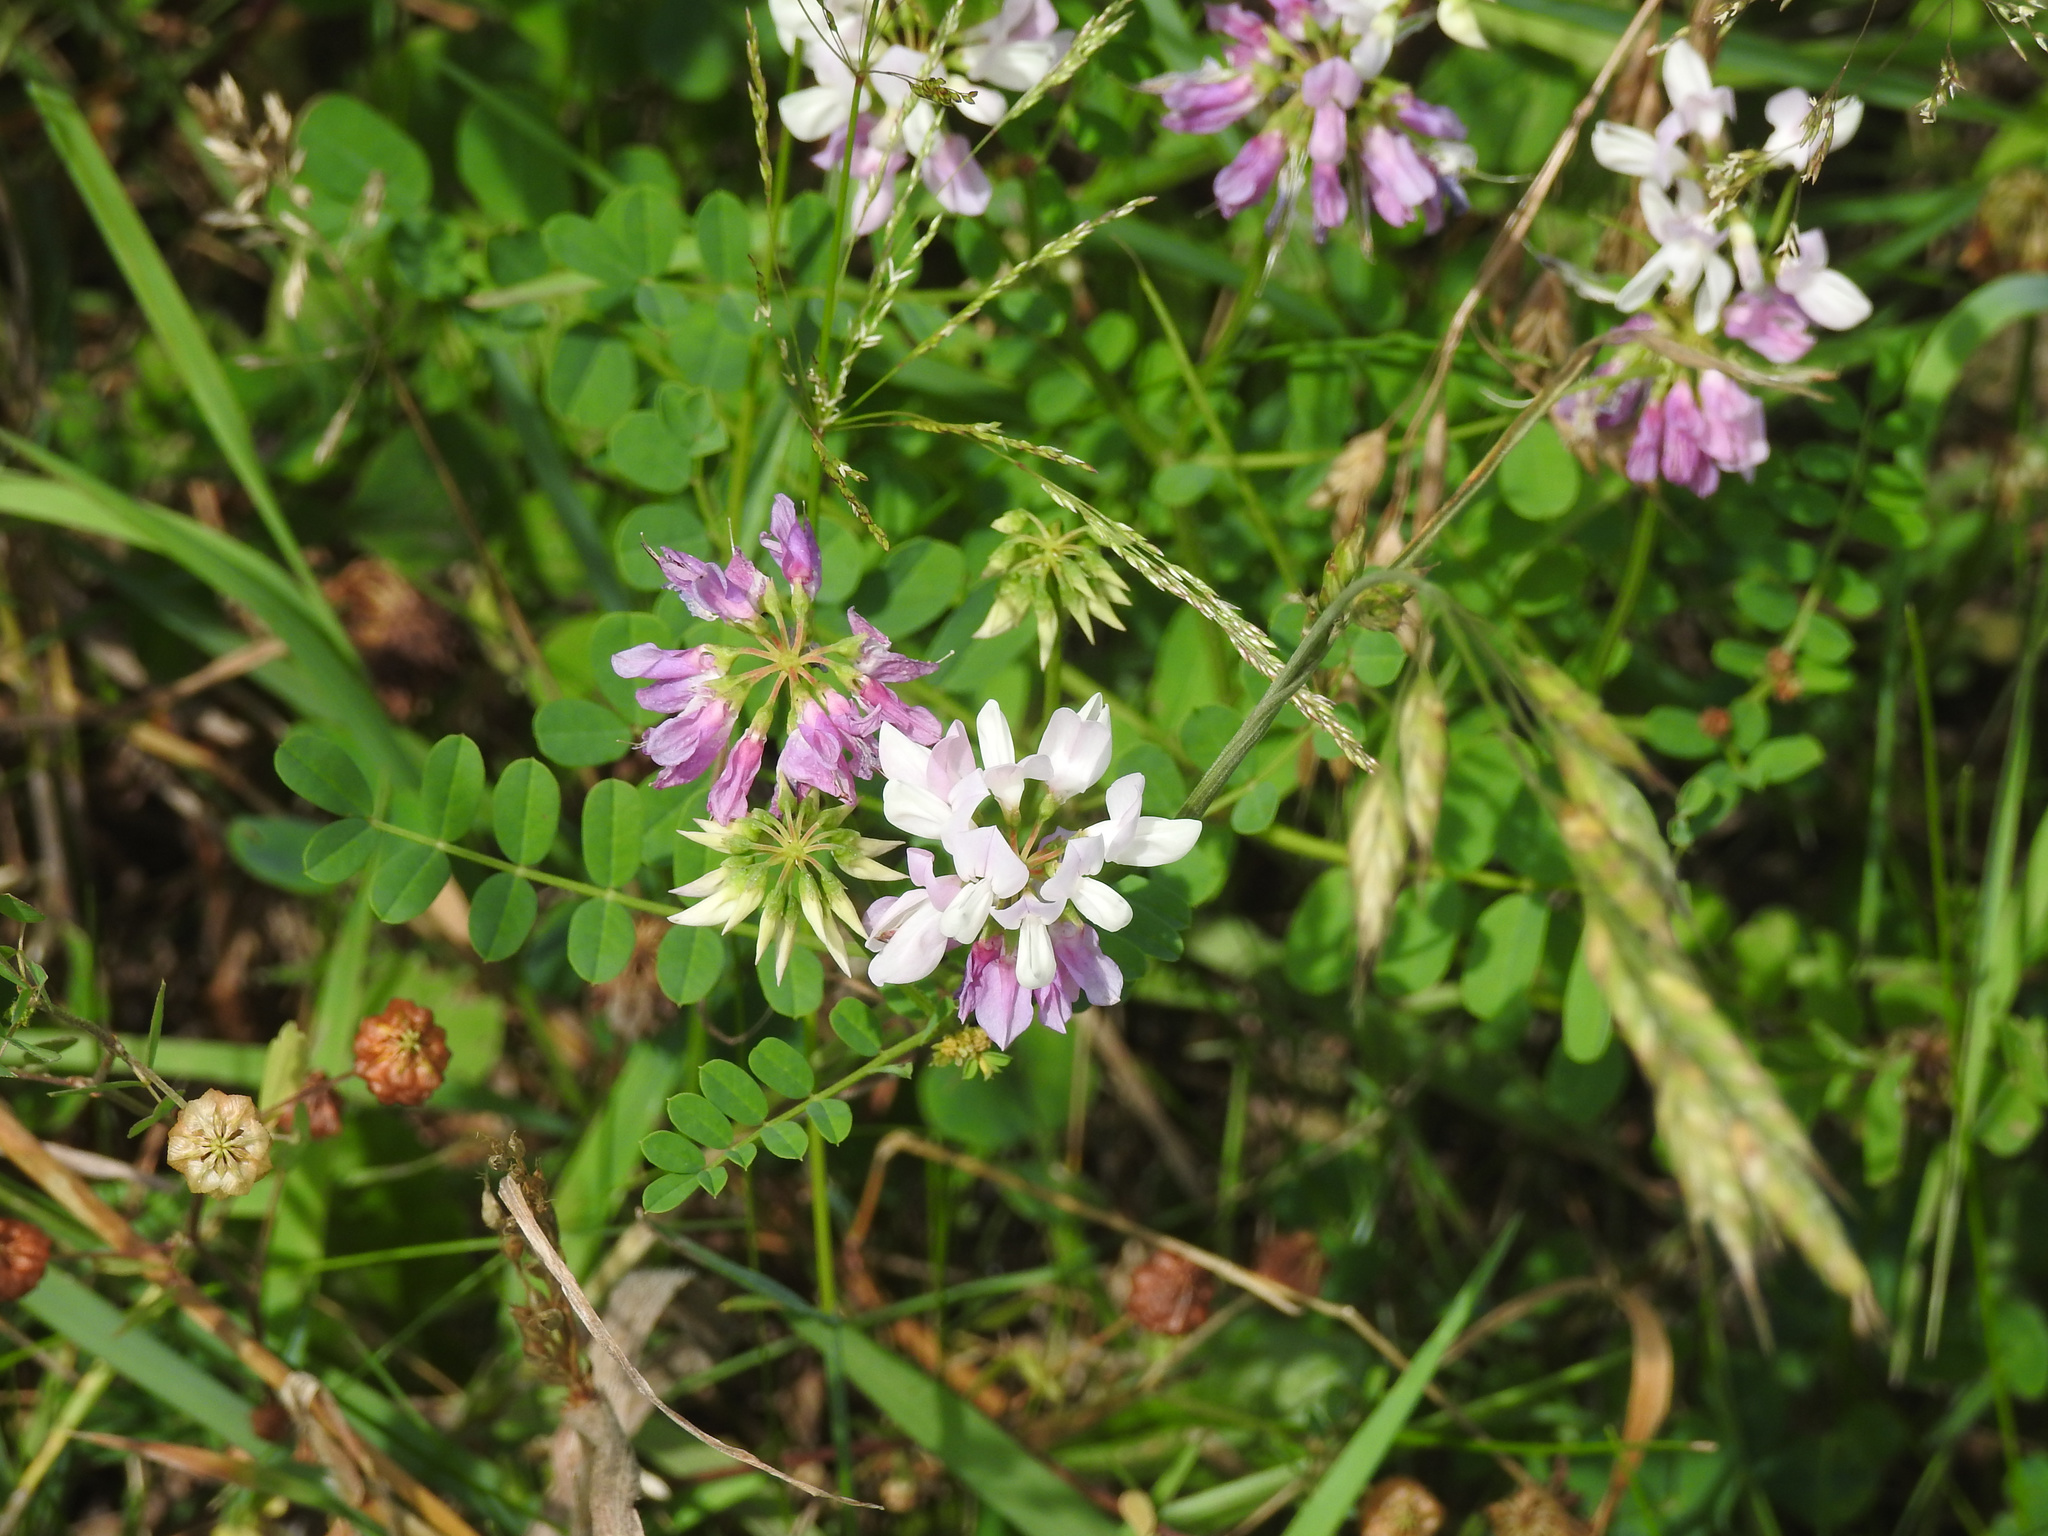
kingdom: Plantae
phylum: Tracheophyta
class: Magnoliopsida
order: Fabales
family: Fabaceae
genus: Coronilla
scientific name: Coronilla varia
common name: Crownvetch
